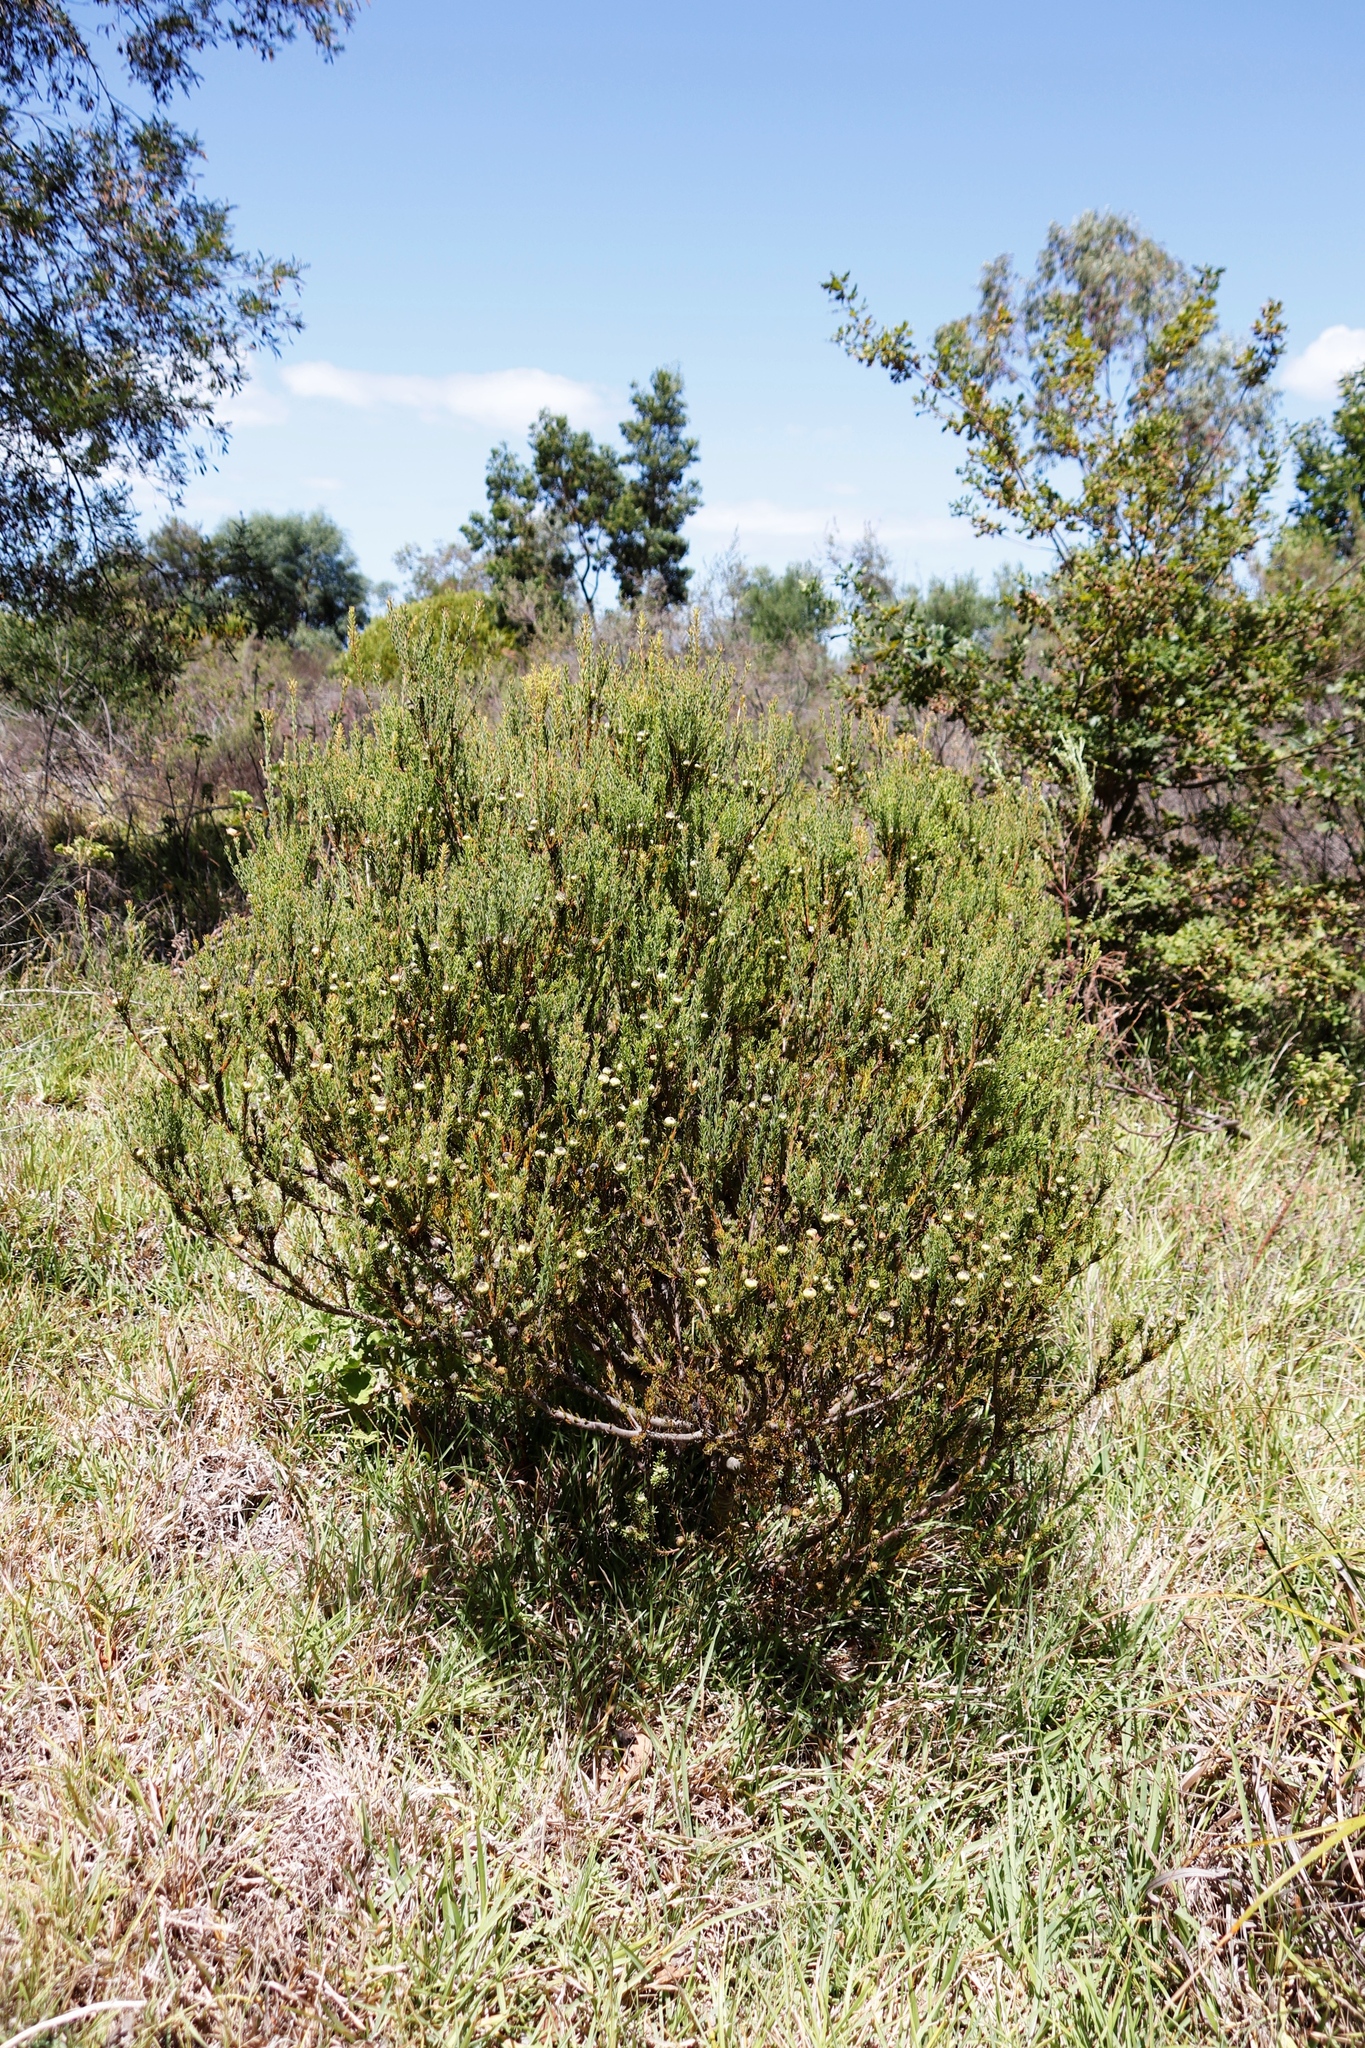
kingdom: Plantae
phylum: Tracheophyta
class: Magnoliopsida
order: Proteales
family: Proteaceae
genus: Leucadendron
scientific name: Leucadendron levisanus
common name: Cape flats conebush
